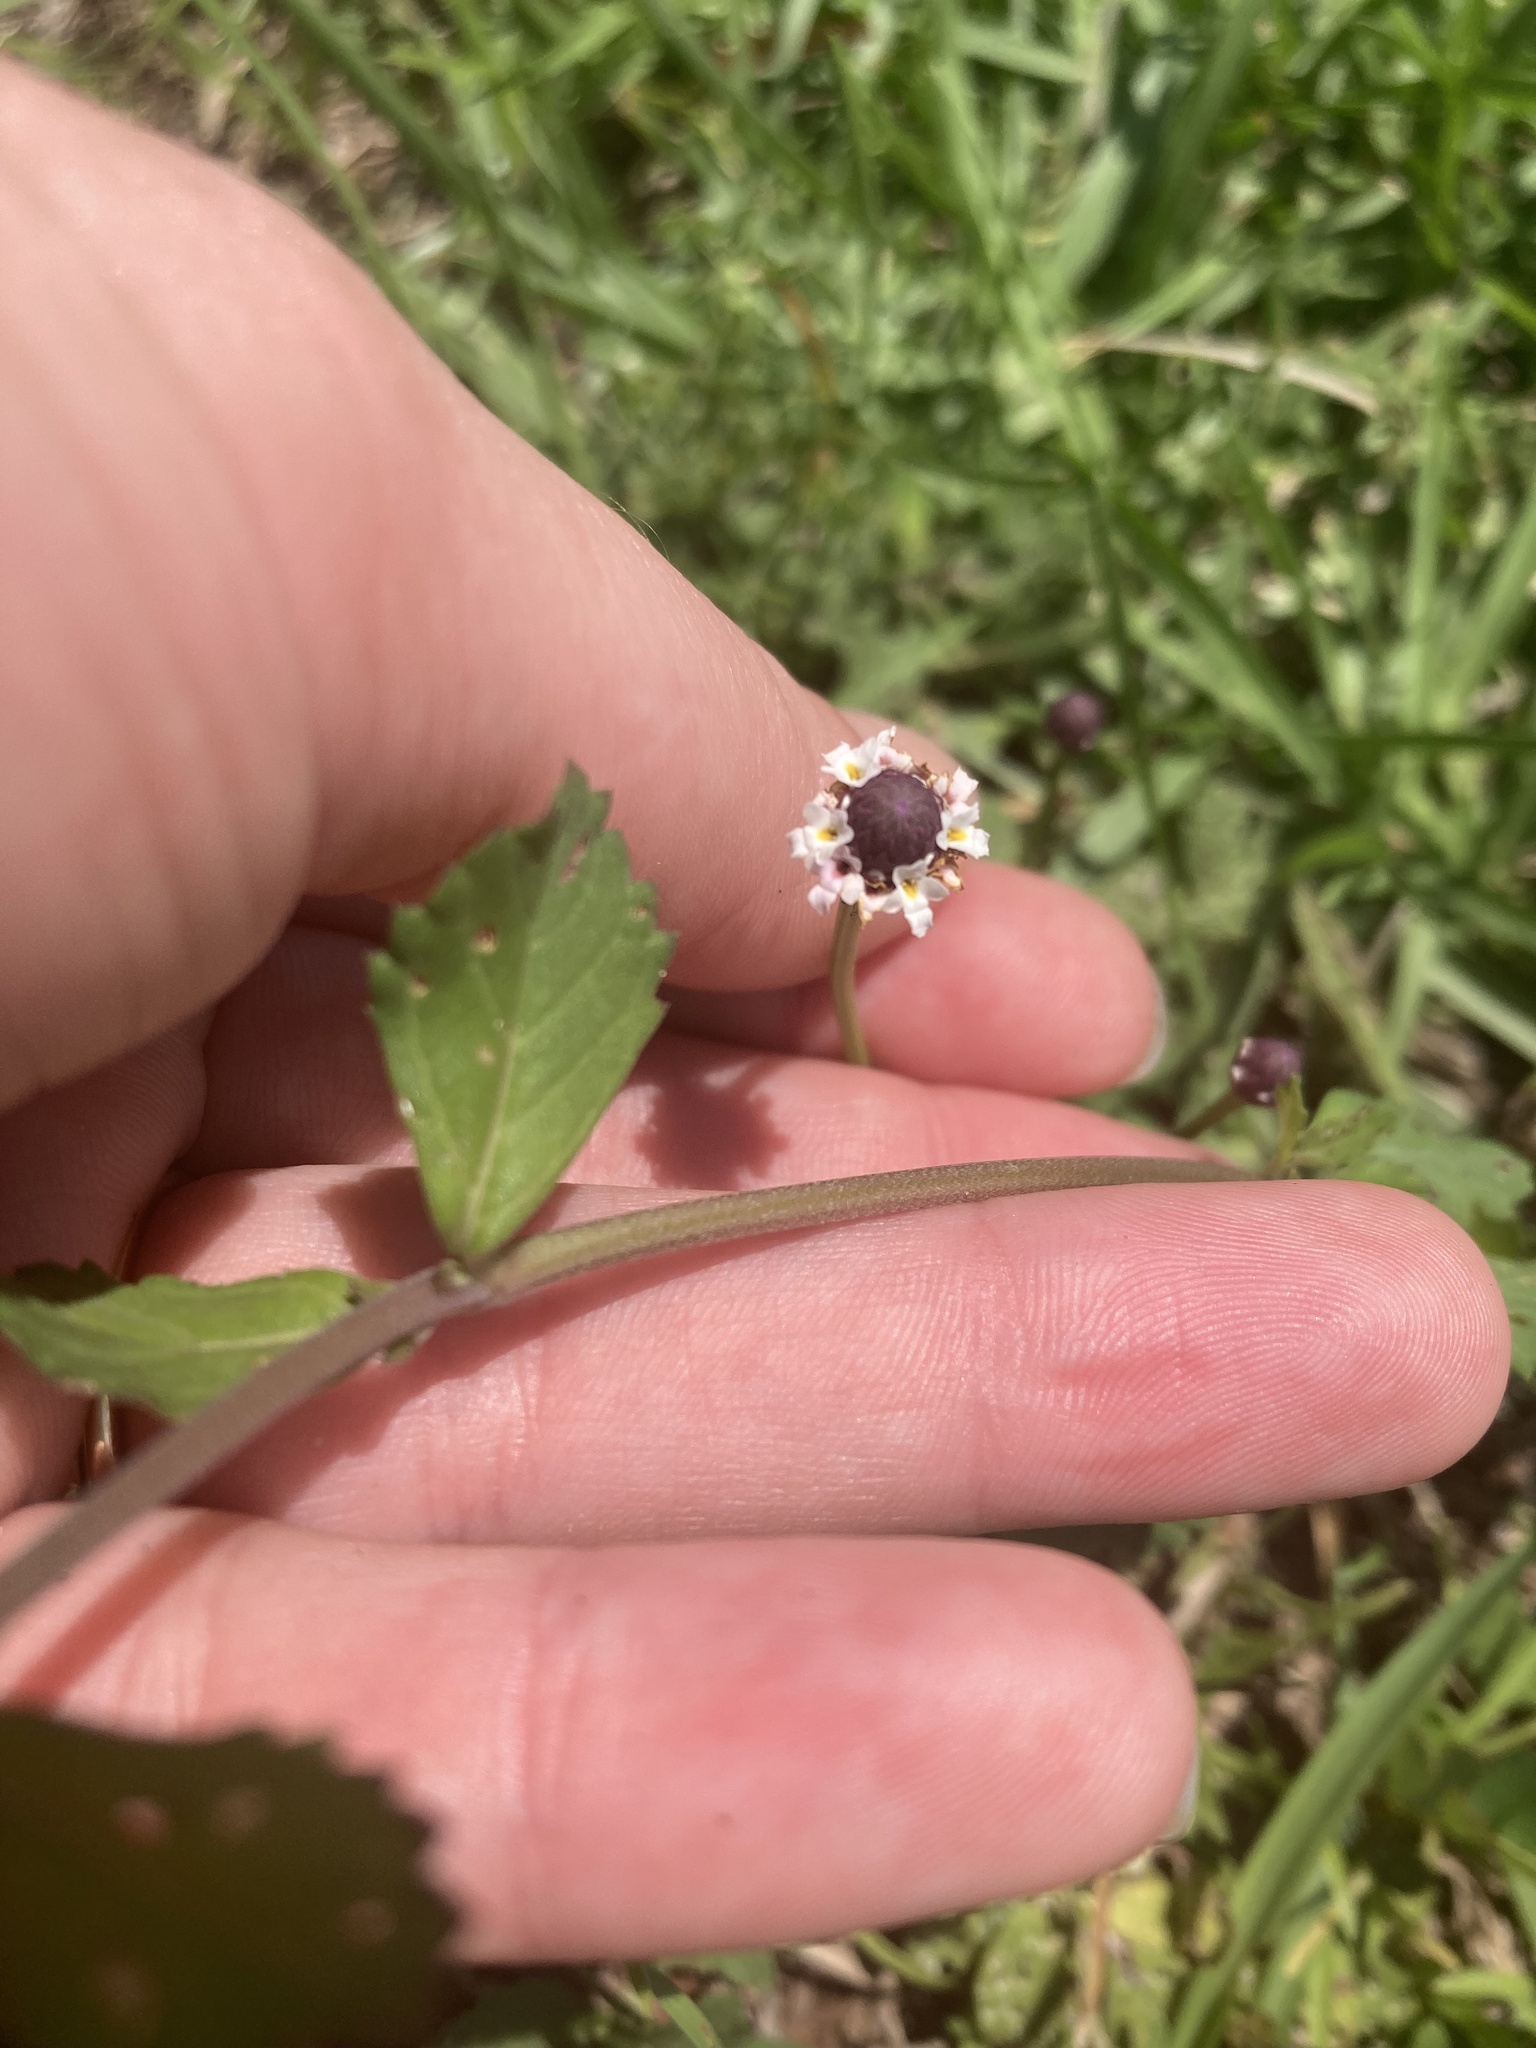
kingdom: Plantae
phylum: Tracheophyta
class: Magnoliopsida
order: Lamiales
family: Verbenaceae
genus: Phyla
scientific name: Phyla nodiflora
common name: Frogfruit
